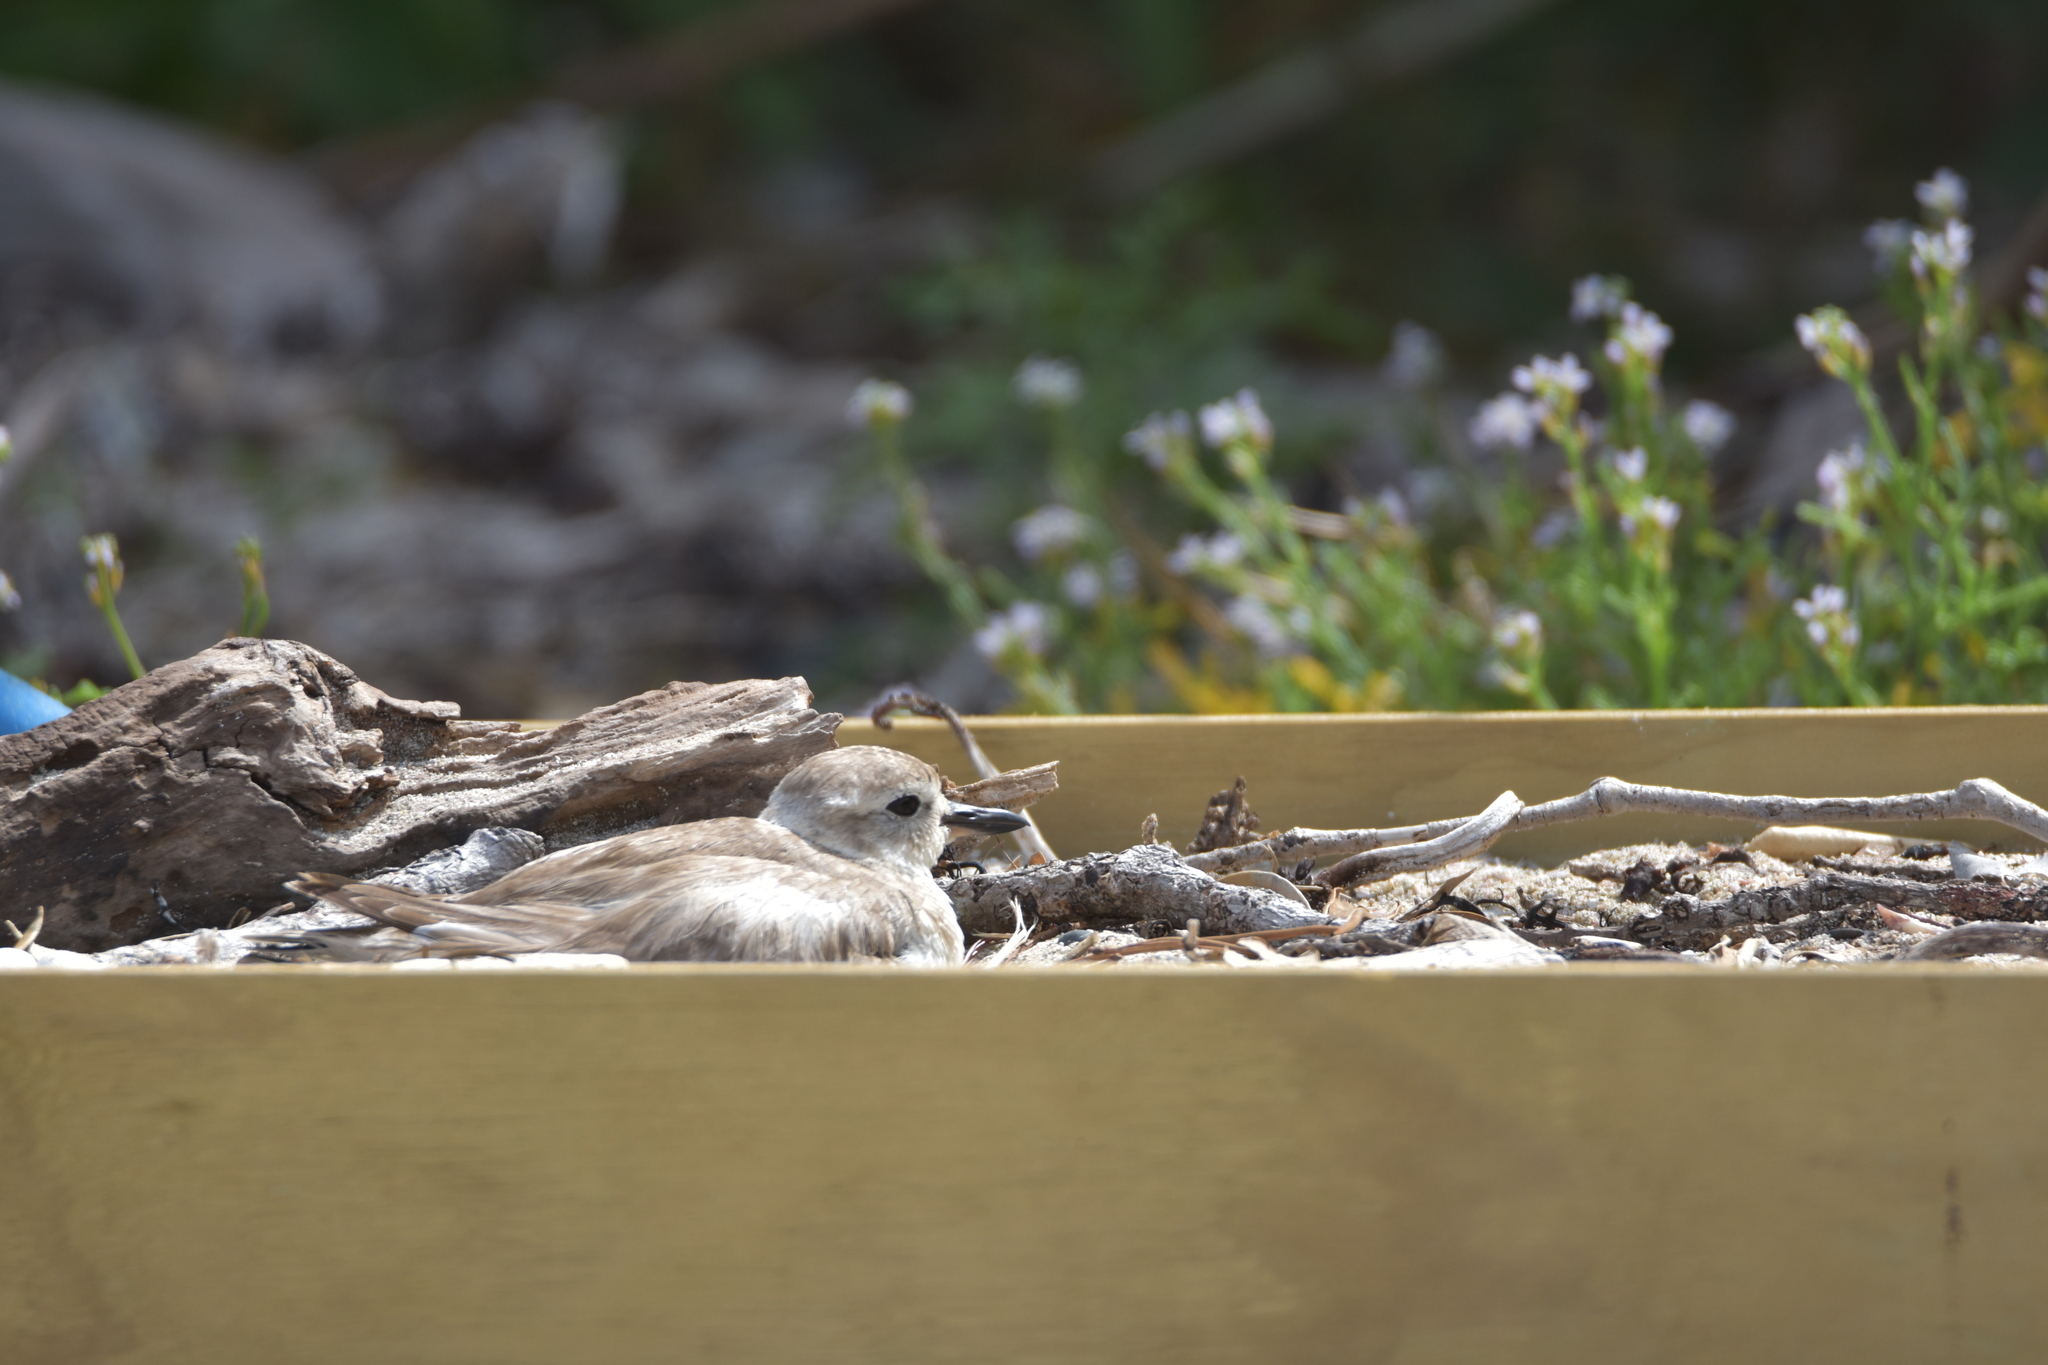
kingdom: Animalia
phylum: Chordata
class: Aves
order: Charadriiformes
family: Charadriidae
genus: Anarhynchus
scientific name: Anarhynchus
